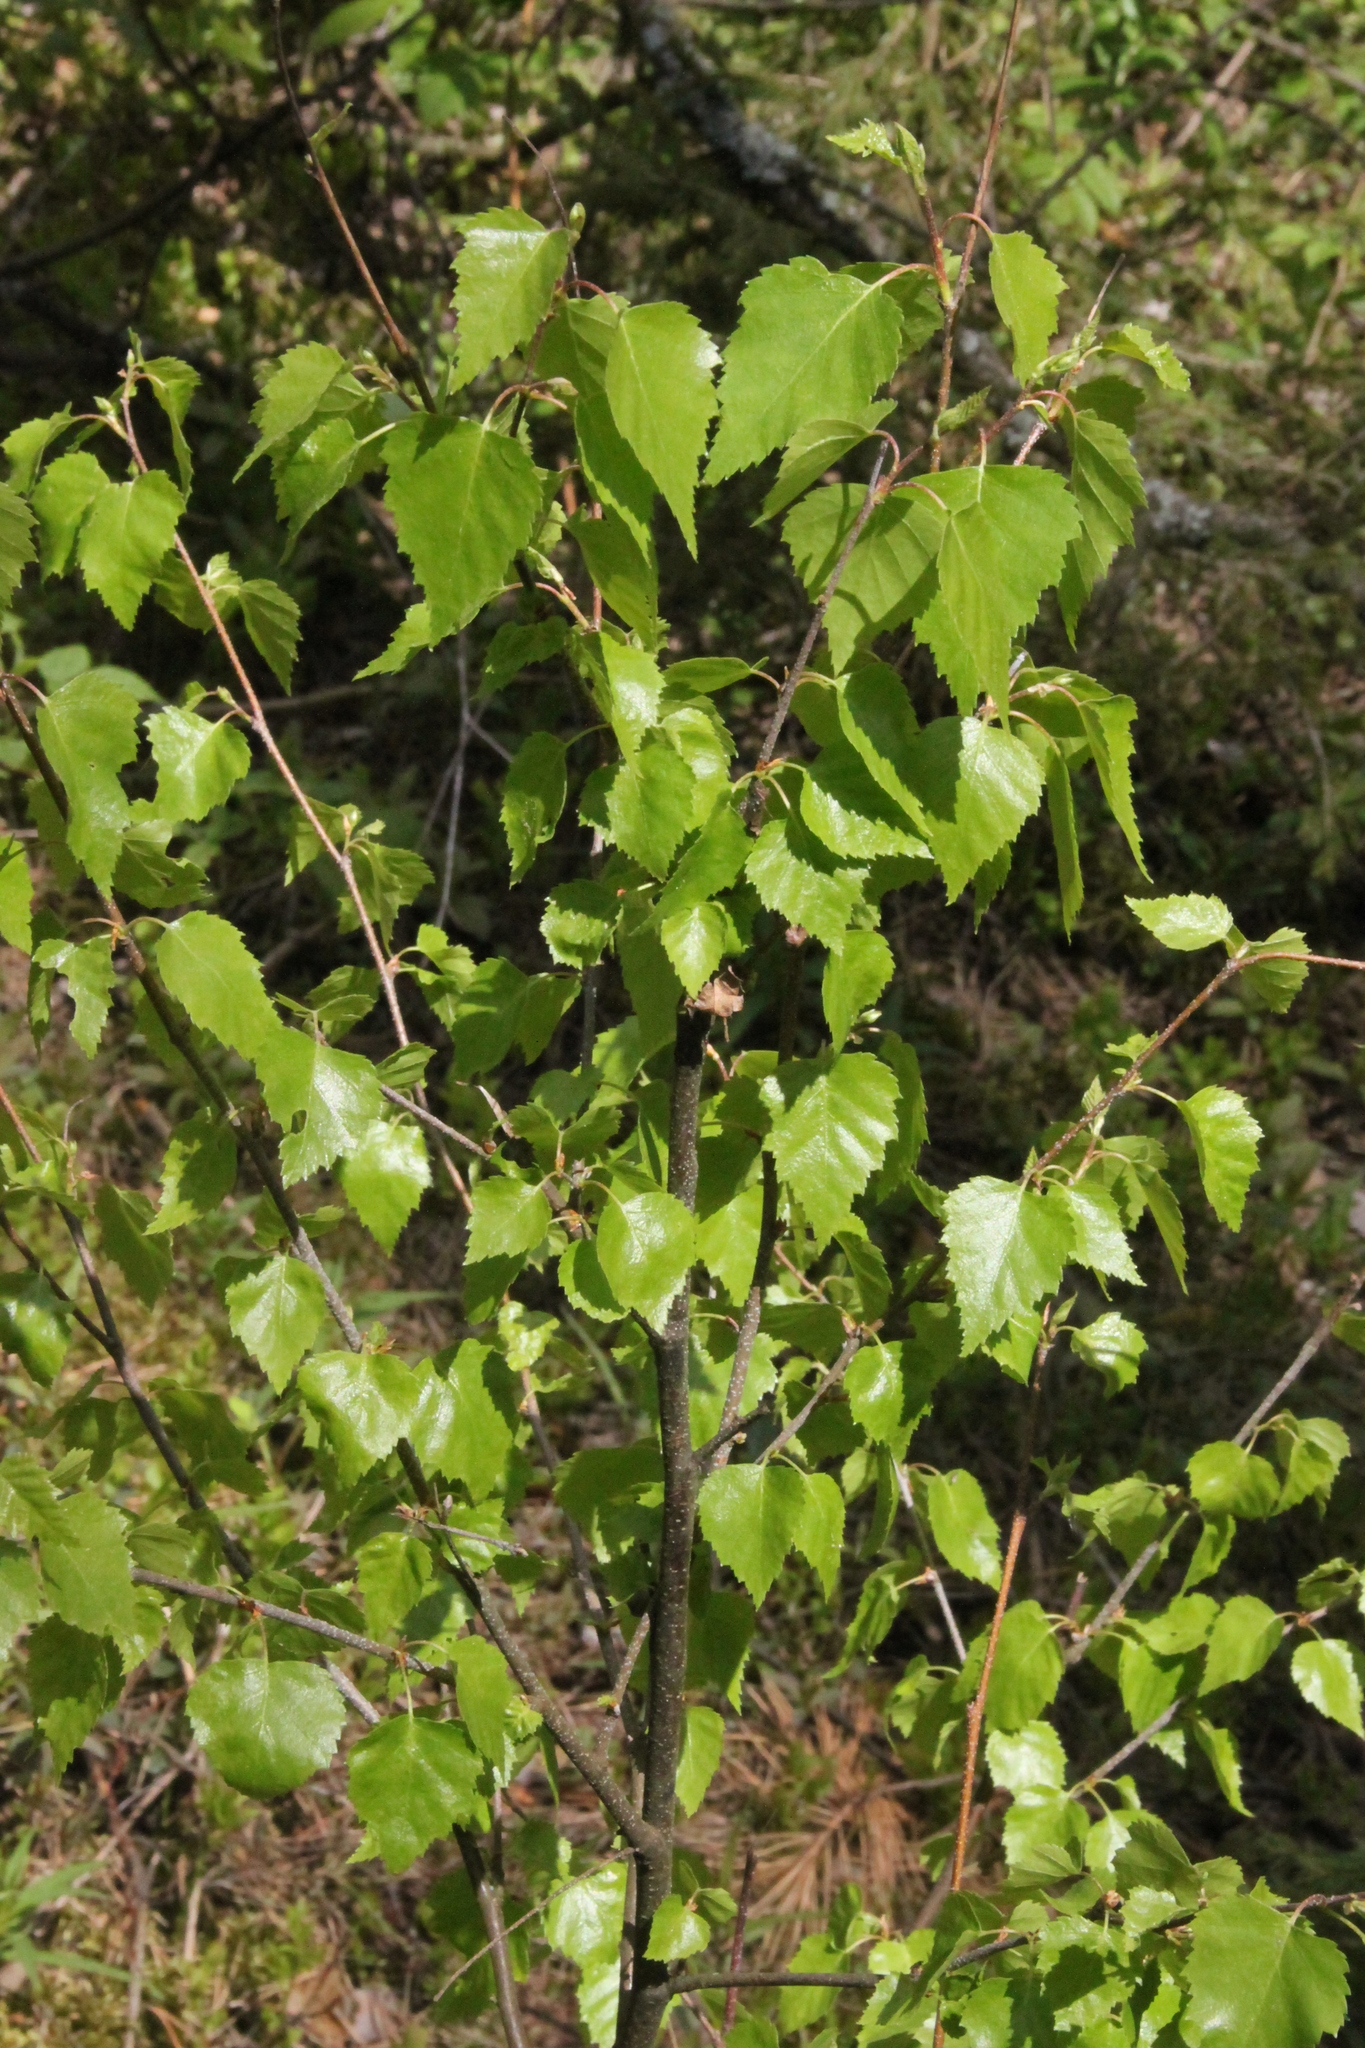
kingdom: Plantae
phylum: Tracheophyta
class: Magnoliopsida
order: Fagales
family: Betulaceae
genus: Betula
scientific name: Betula pendula
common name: Silver birch
